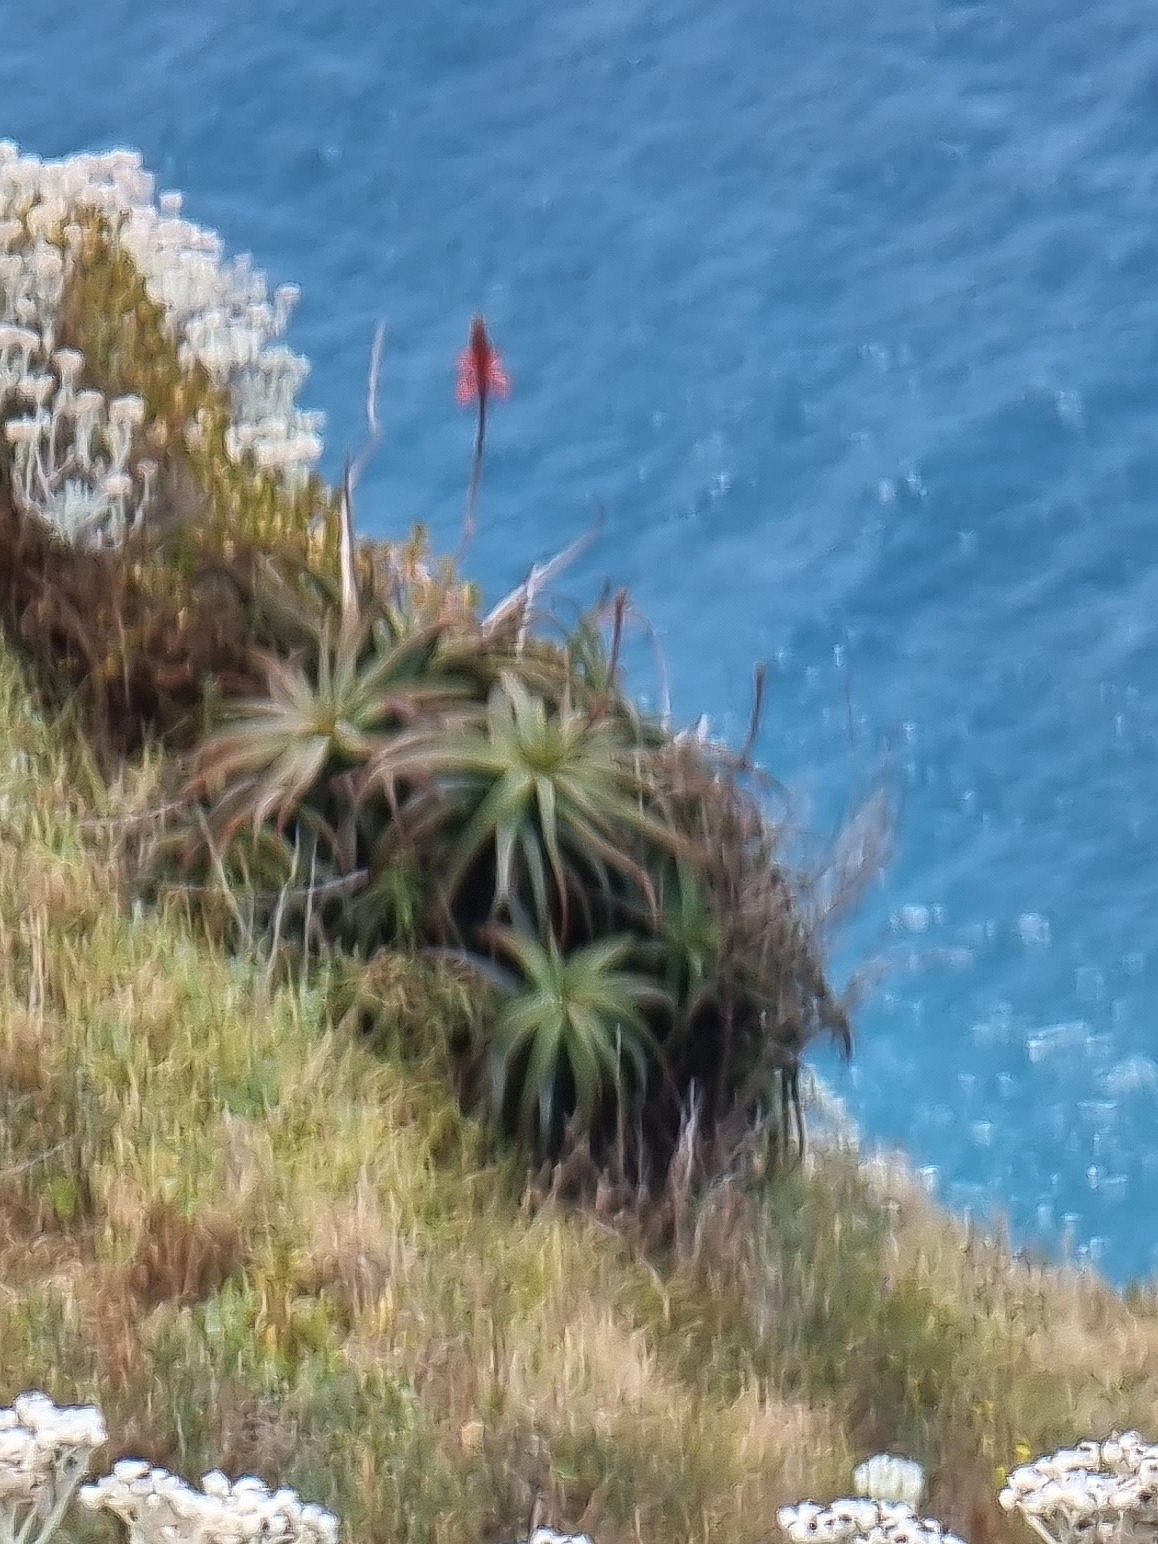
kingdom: Plantae
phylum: Tracheophyta
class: Liliopsida
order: Asparagales
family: Asphodelaceae
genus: Aloe
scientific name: Aloe arborescens
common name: Candelabra aloe
